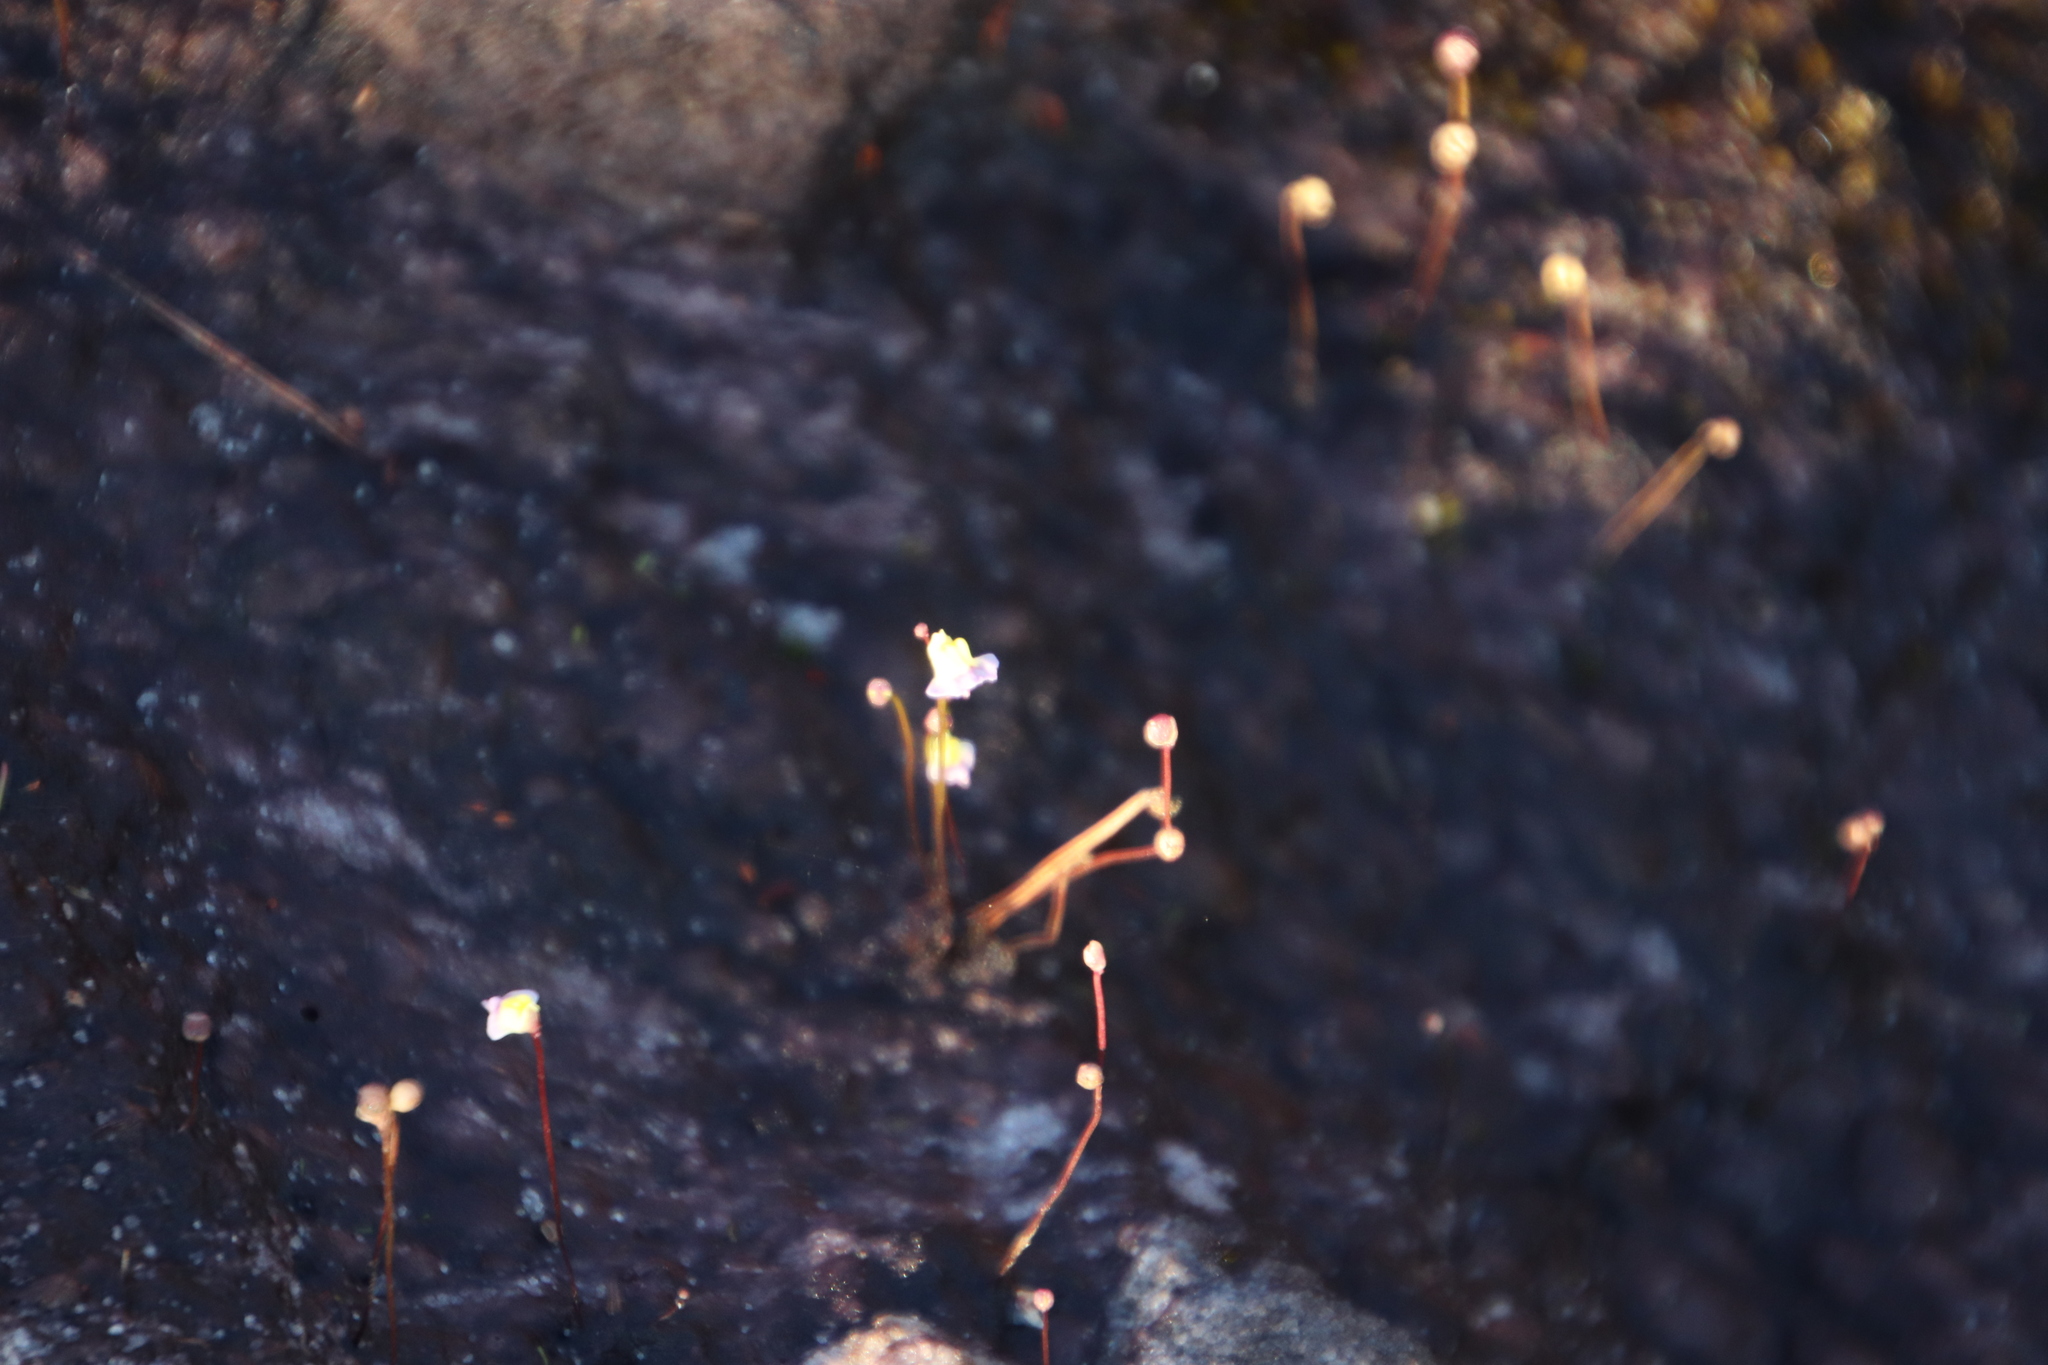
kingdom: Plantae
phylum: Tracheophyta
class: Magnoliopsida
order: Lamiales
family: Lentibulariaceae
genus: Utricularia
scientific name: Utricularia bisquamata
